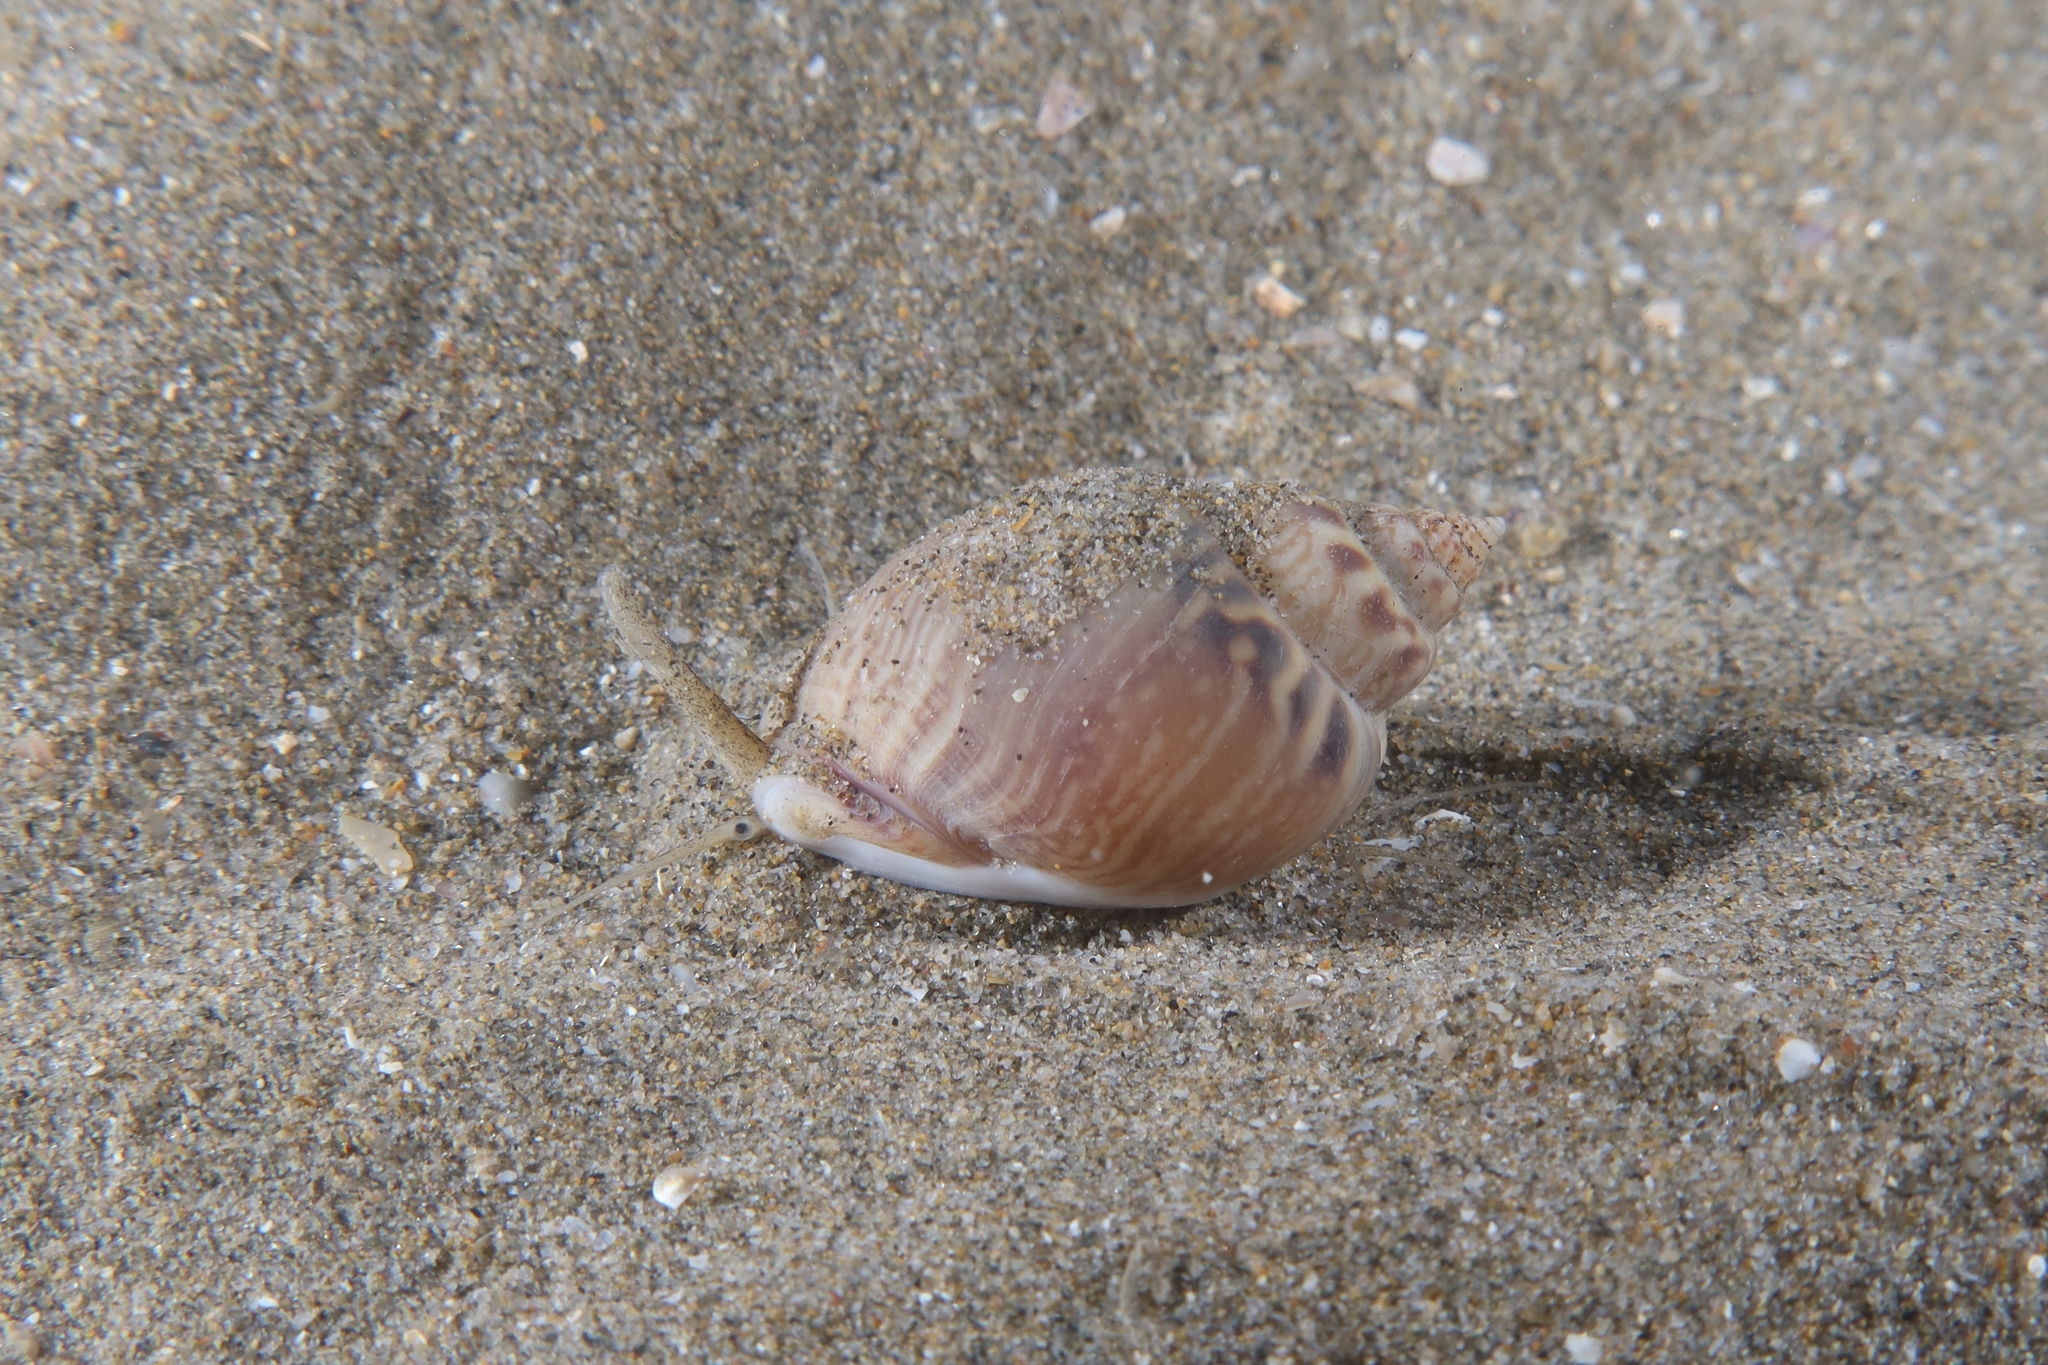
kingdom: Animalia
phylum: Mollusca
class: Gastropoda
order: Neogastropoda
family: Nassariidae
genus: Tritia
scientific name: Tritia mutabilis
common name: Mutable nassa
